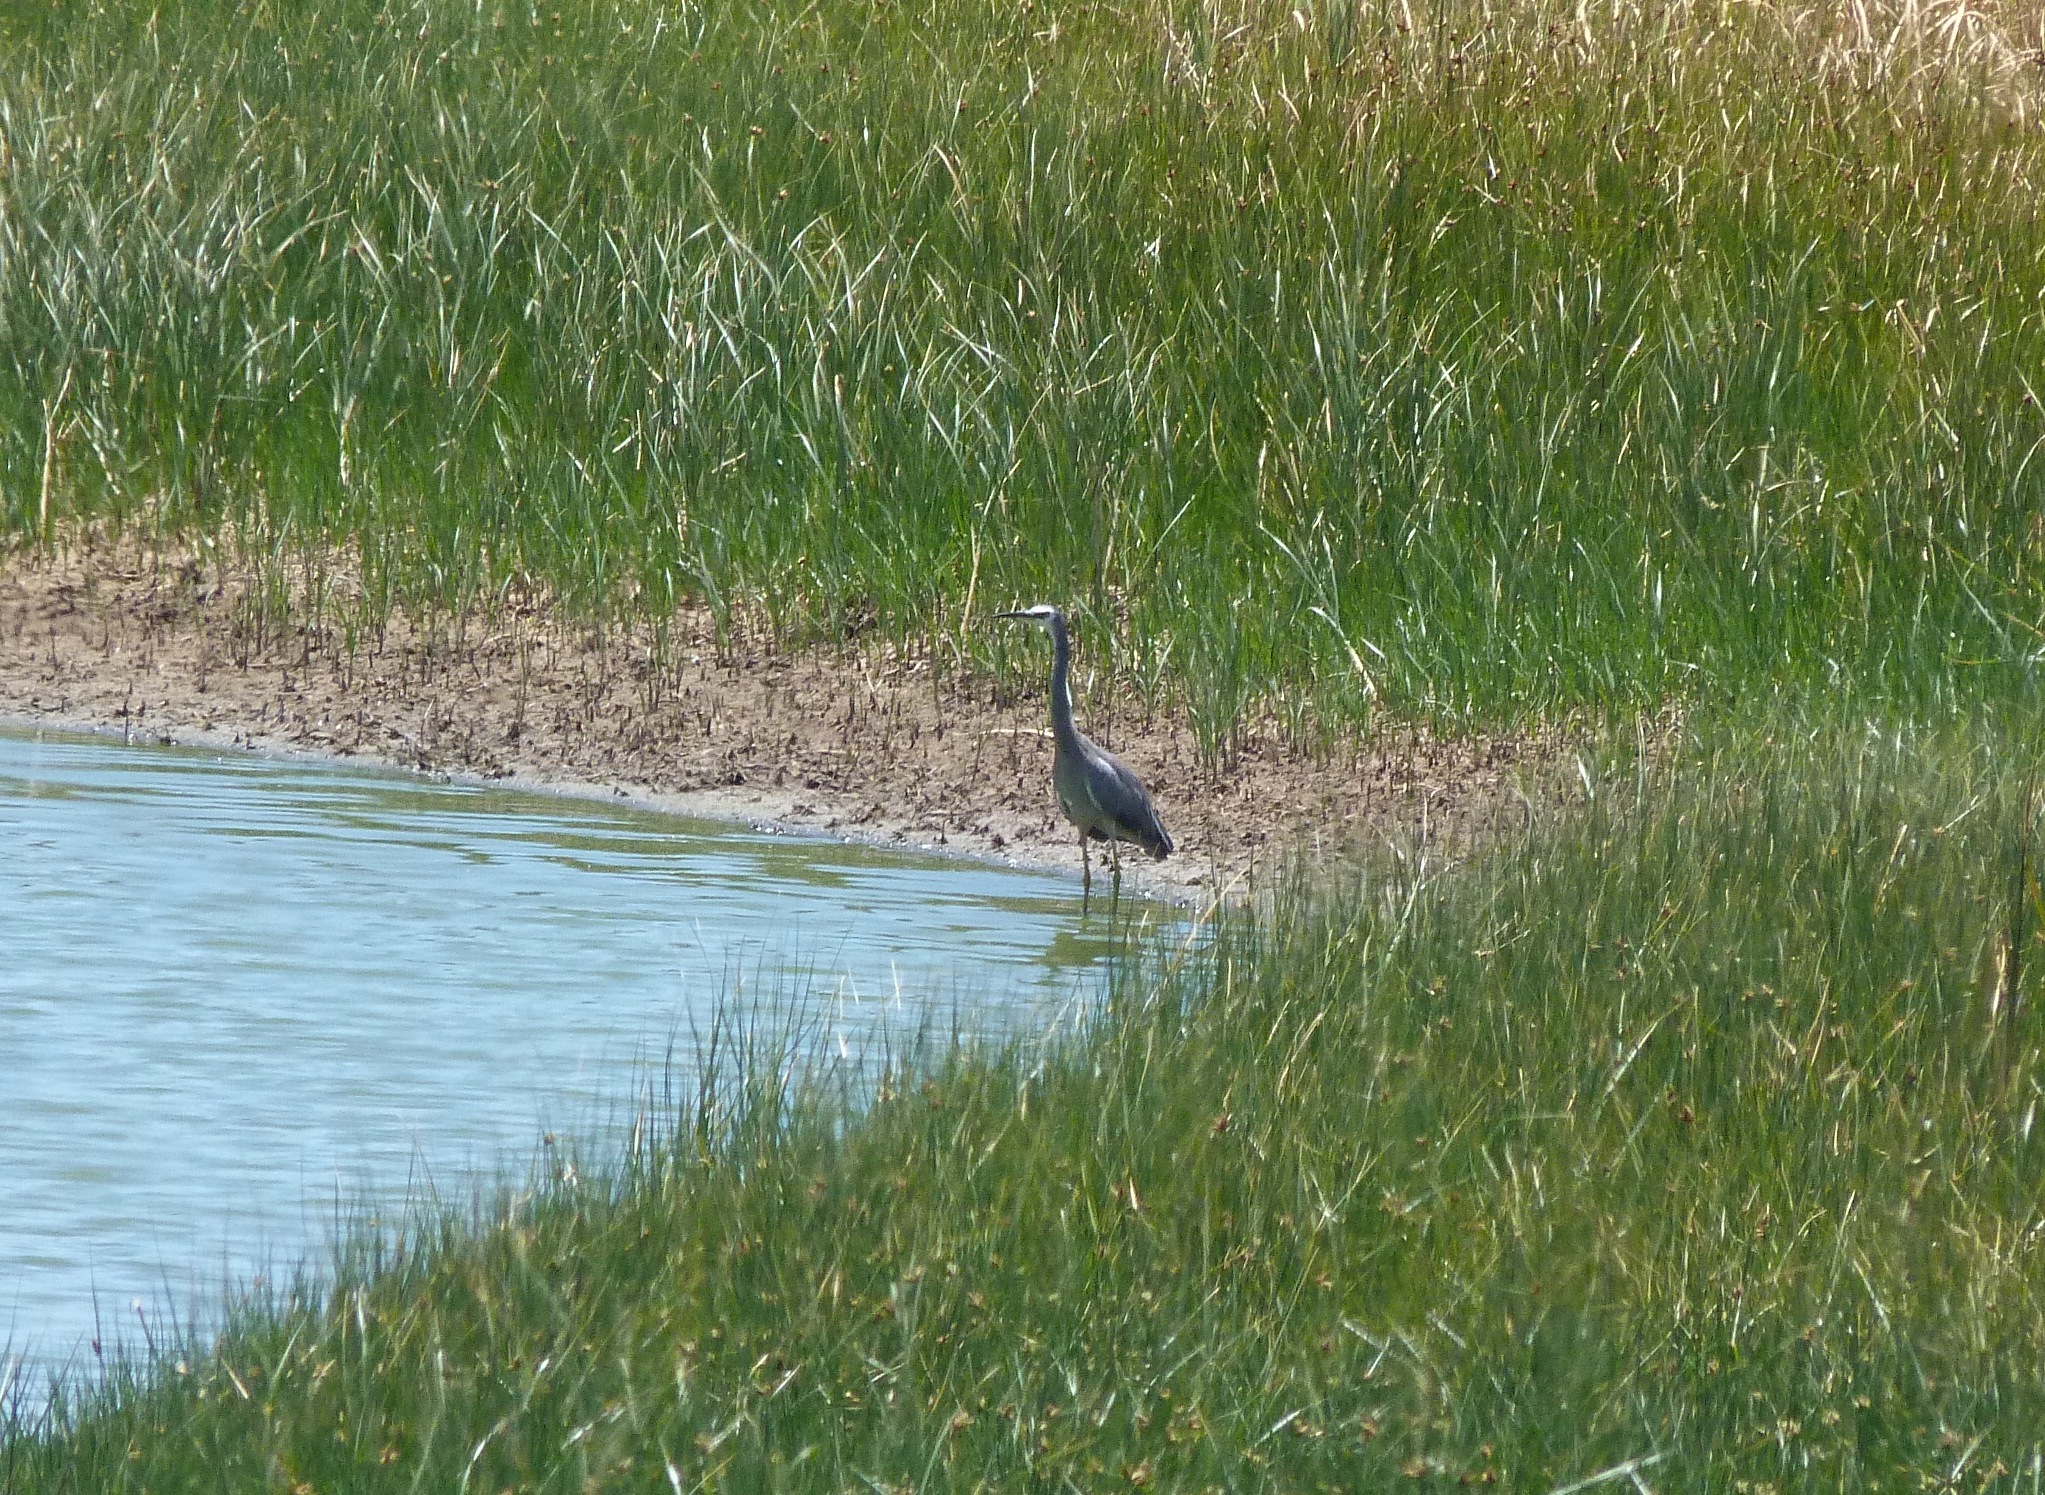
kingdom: Animalia
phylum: Chordata
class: Aves
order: Pelecaniformes
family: Ardeidae
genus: Egretta
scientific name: Egretta novaehollandiae
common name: White-faced heron
